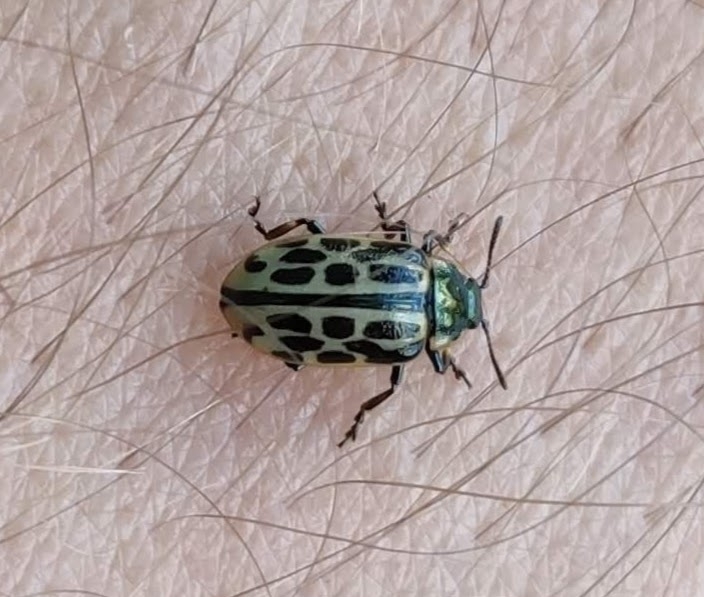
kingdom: Animalia
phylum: Arthropoda
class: Insecta
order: Coleoptera
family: Chrysomelidae
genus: Chrysomela
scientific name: Chrysomela vigintipunctata
